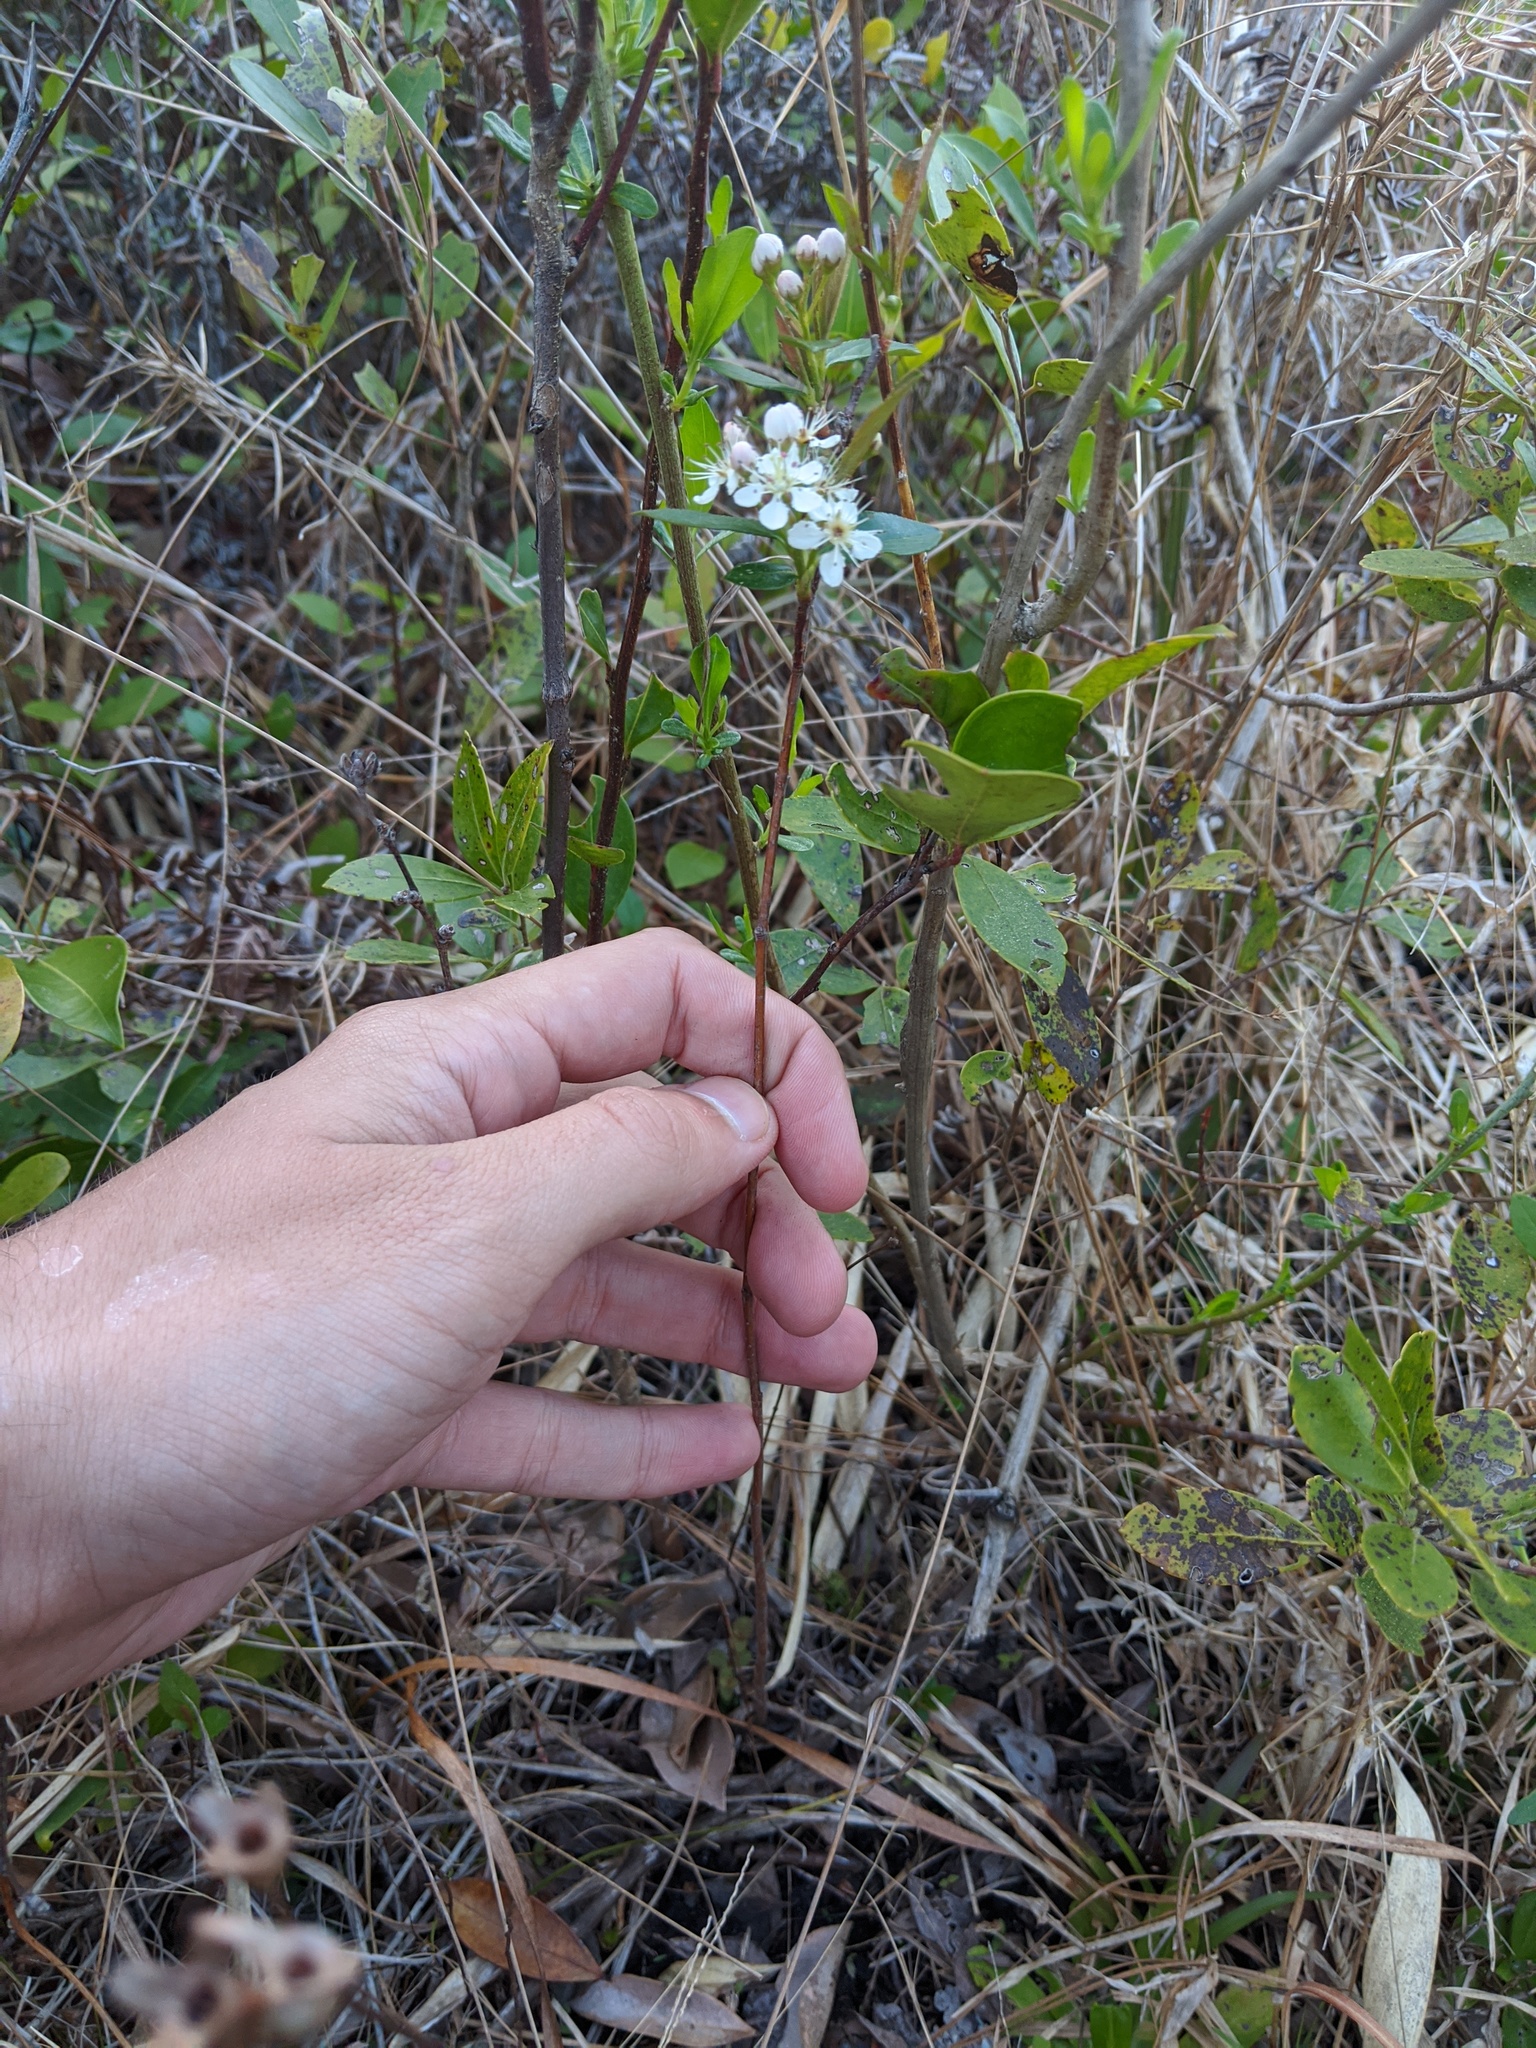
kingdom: Plantae
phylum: Tracheophyta
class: Magnoliopsida
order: Rosales
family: Rosaceae
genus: Aronia
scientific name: Aronia arbutifolia
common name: Red chokeberry
